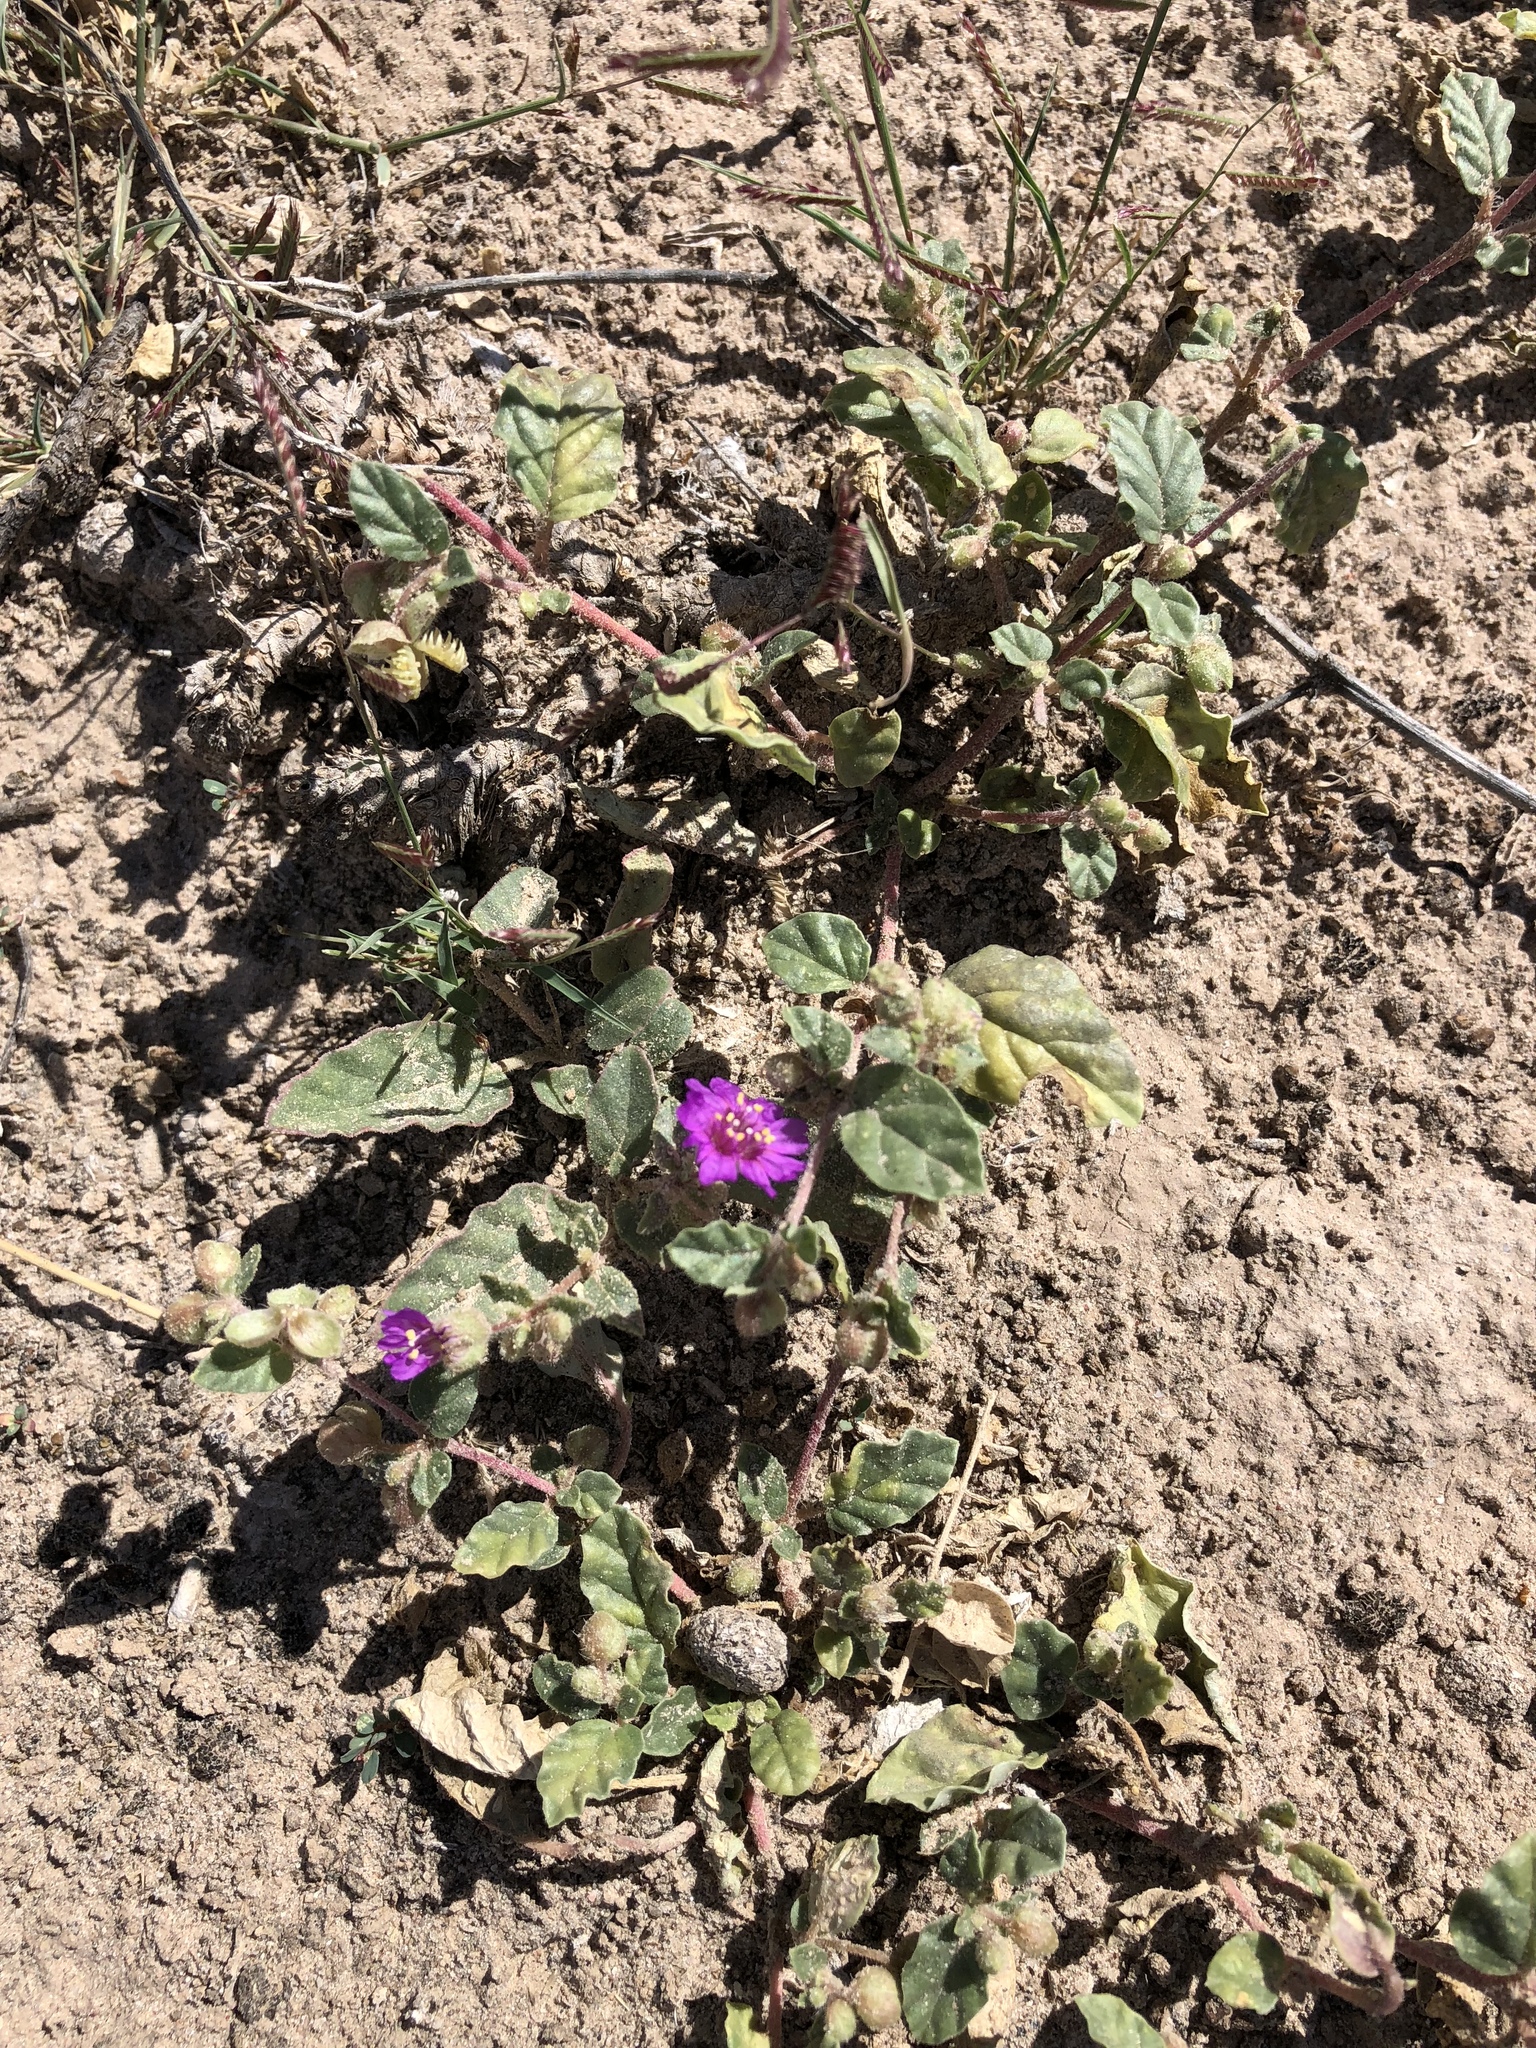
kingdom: Plantae
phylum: Tracheophyta
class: Magnoliopsida
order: Caryophyllales
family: Nyctaginaceae
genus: Allionia
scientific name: Allionia incarnata
